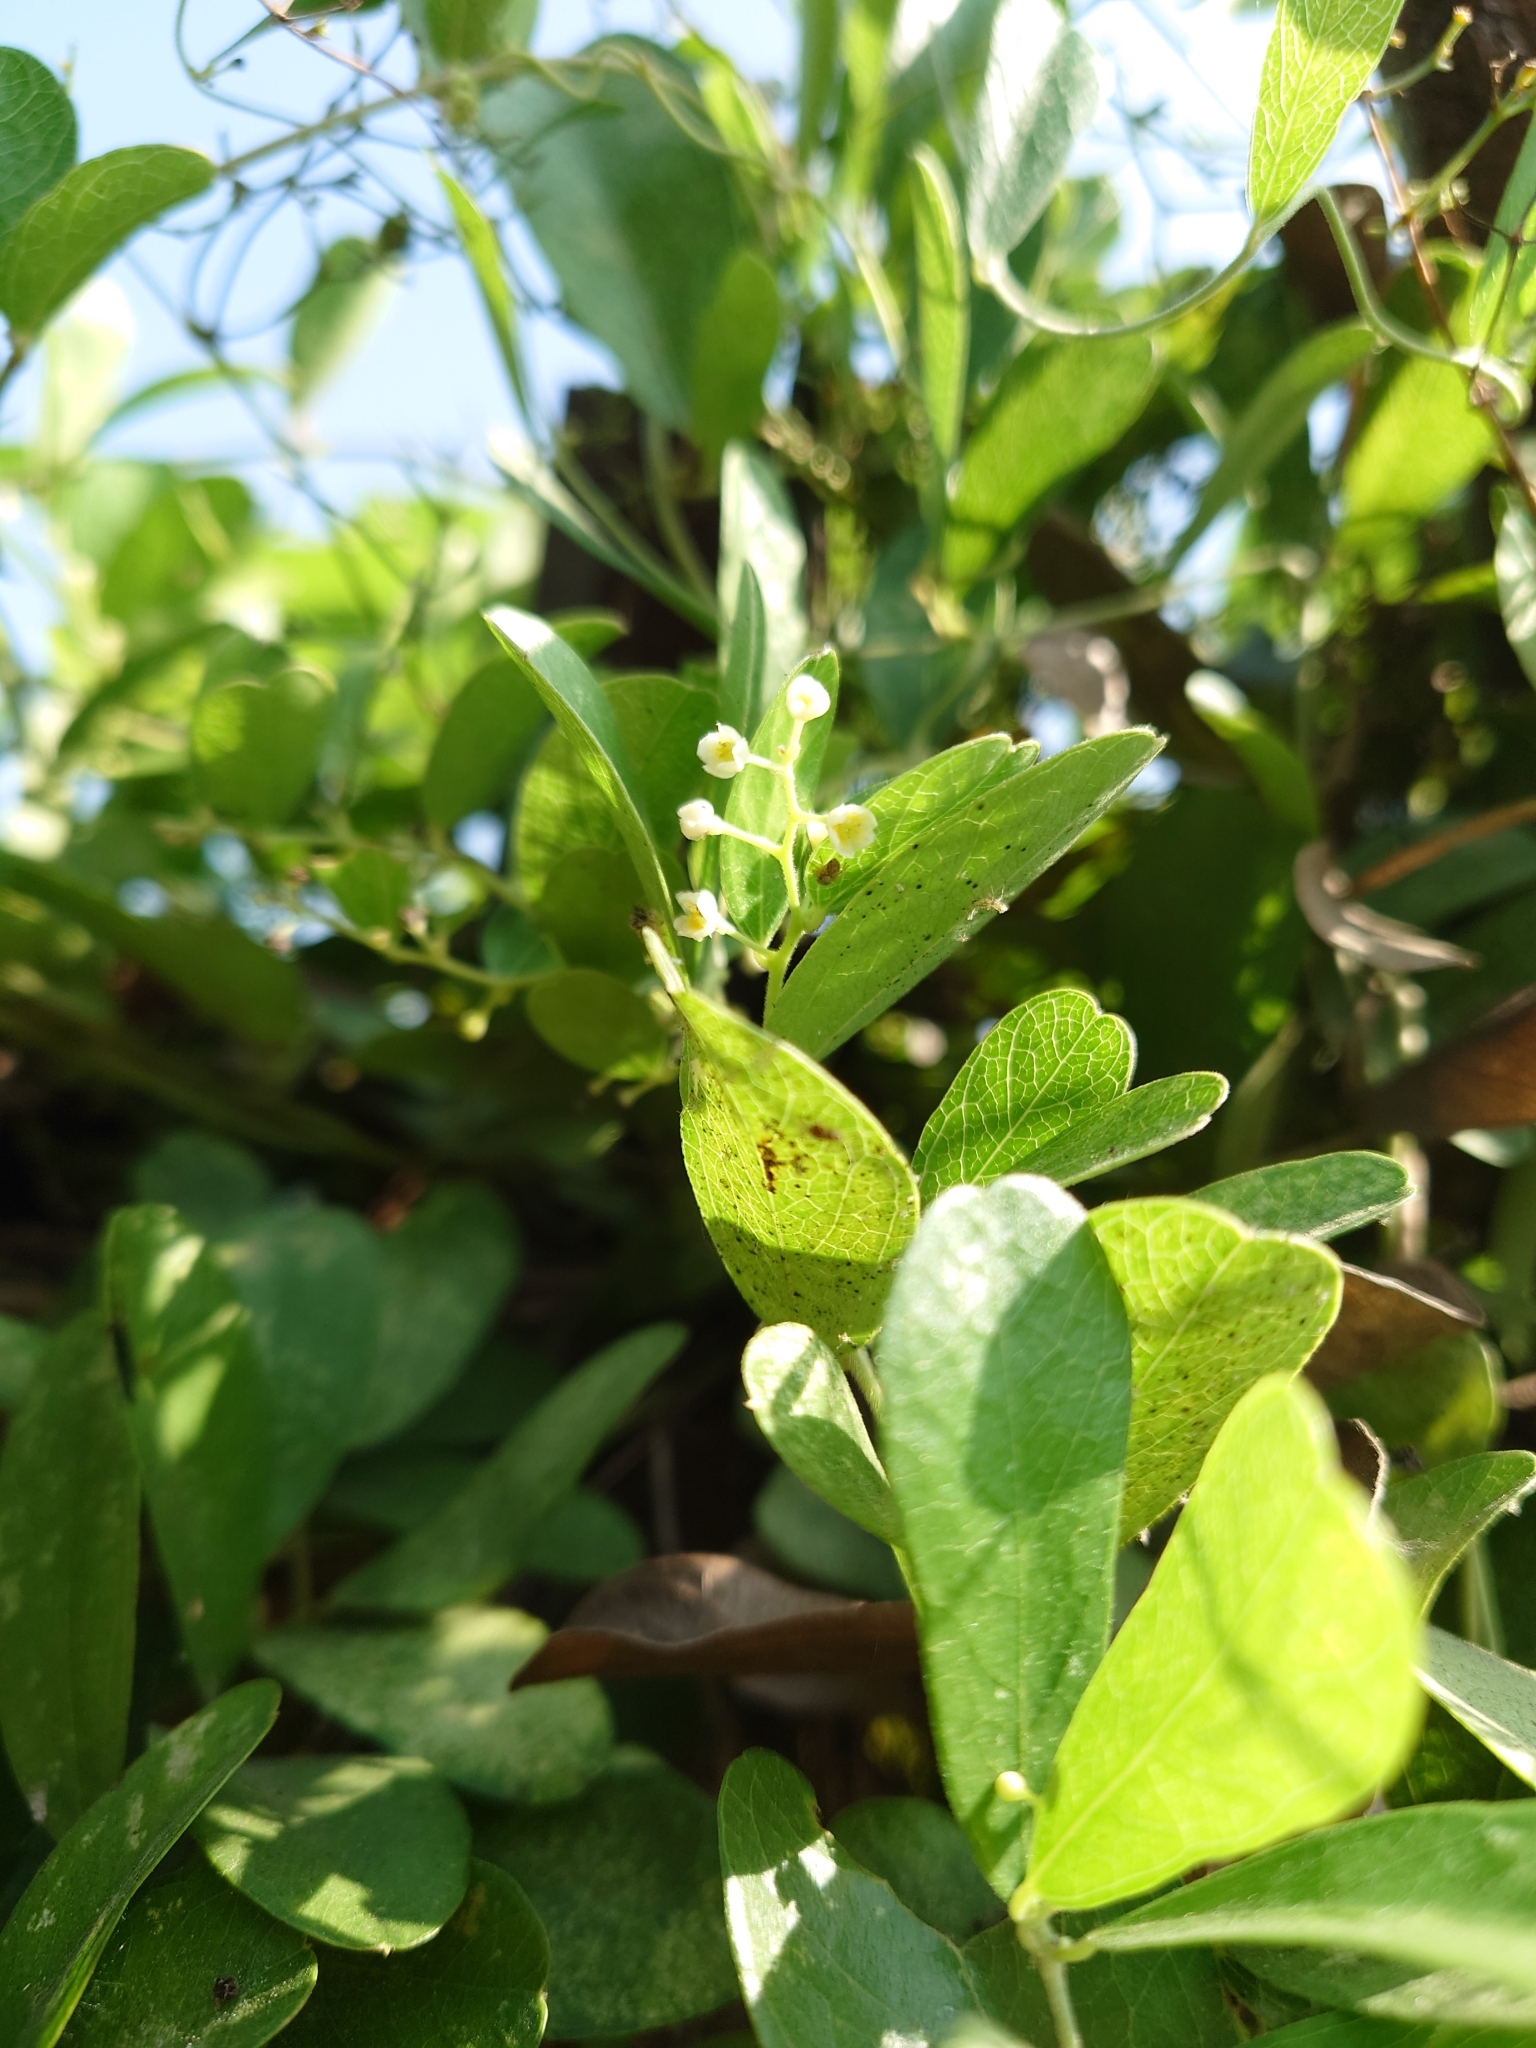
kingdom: Plantae
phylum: Tracheophyta
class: Magnoliopsida
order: Ranunculales
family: Menispermaceae
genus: Cocculus
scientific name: Cocculus orbiculatus
